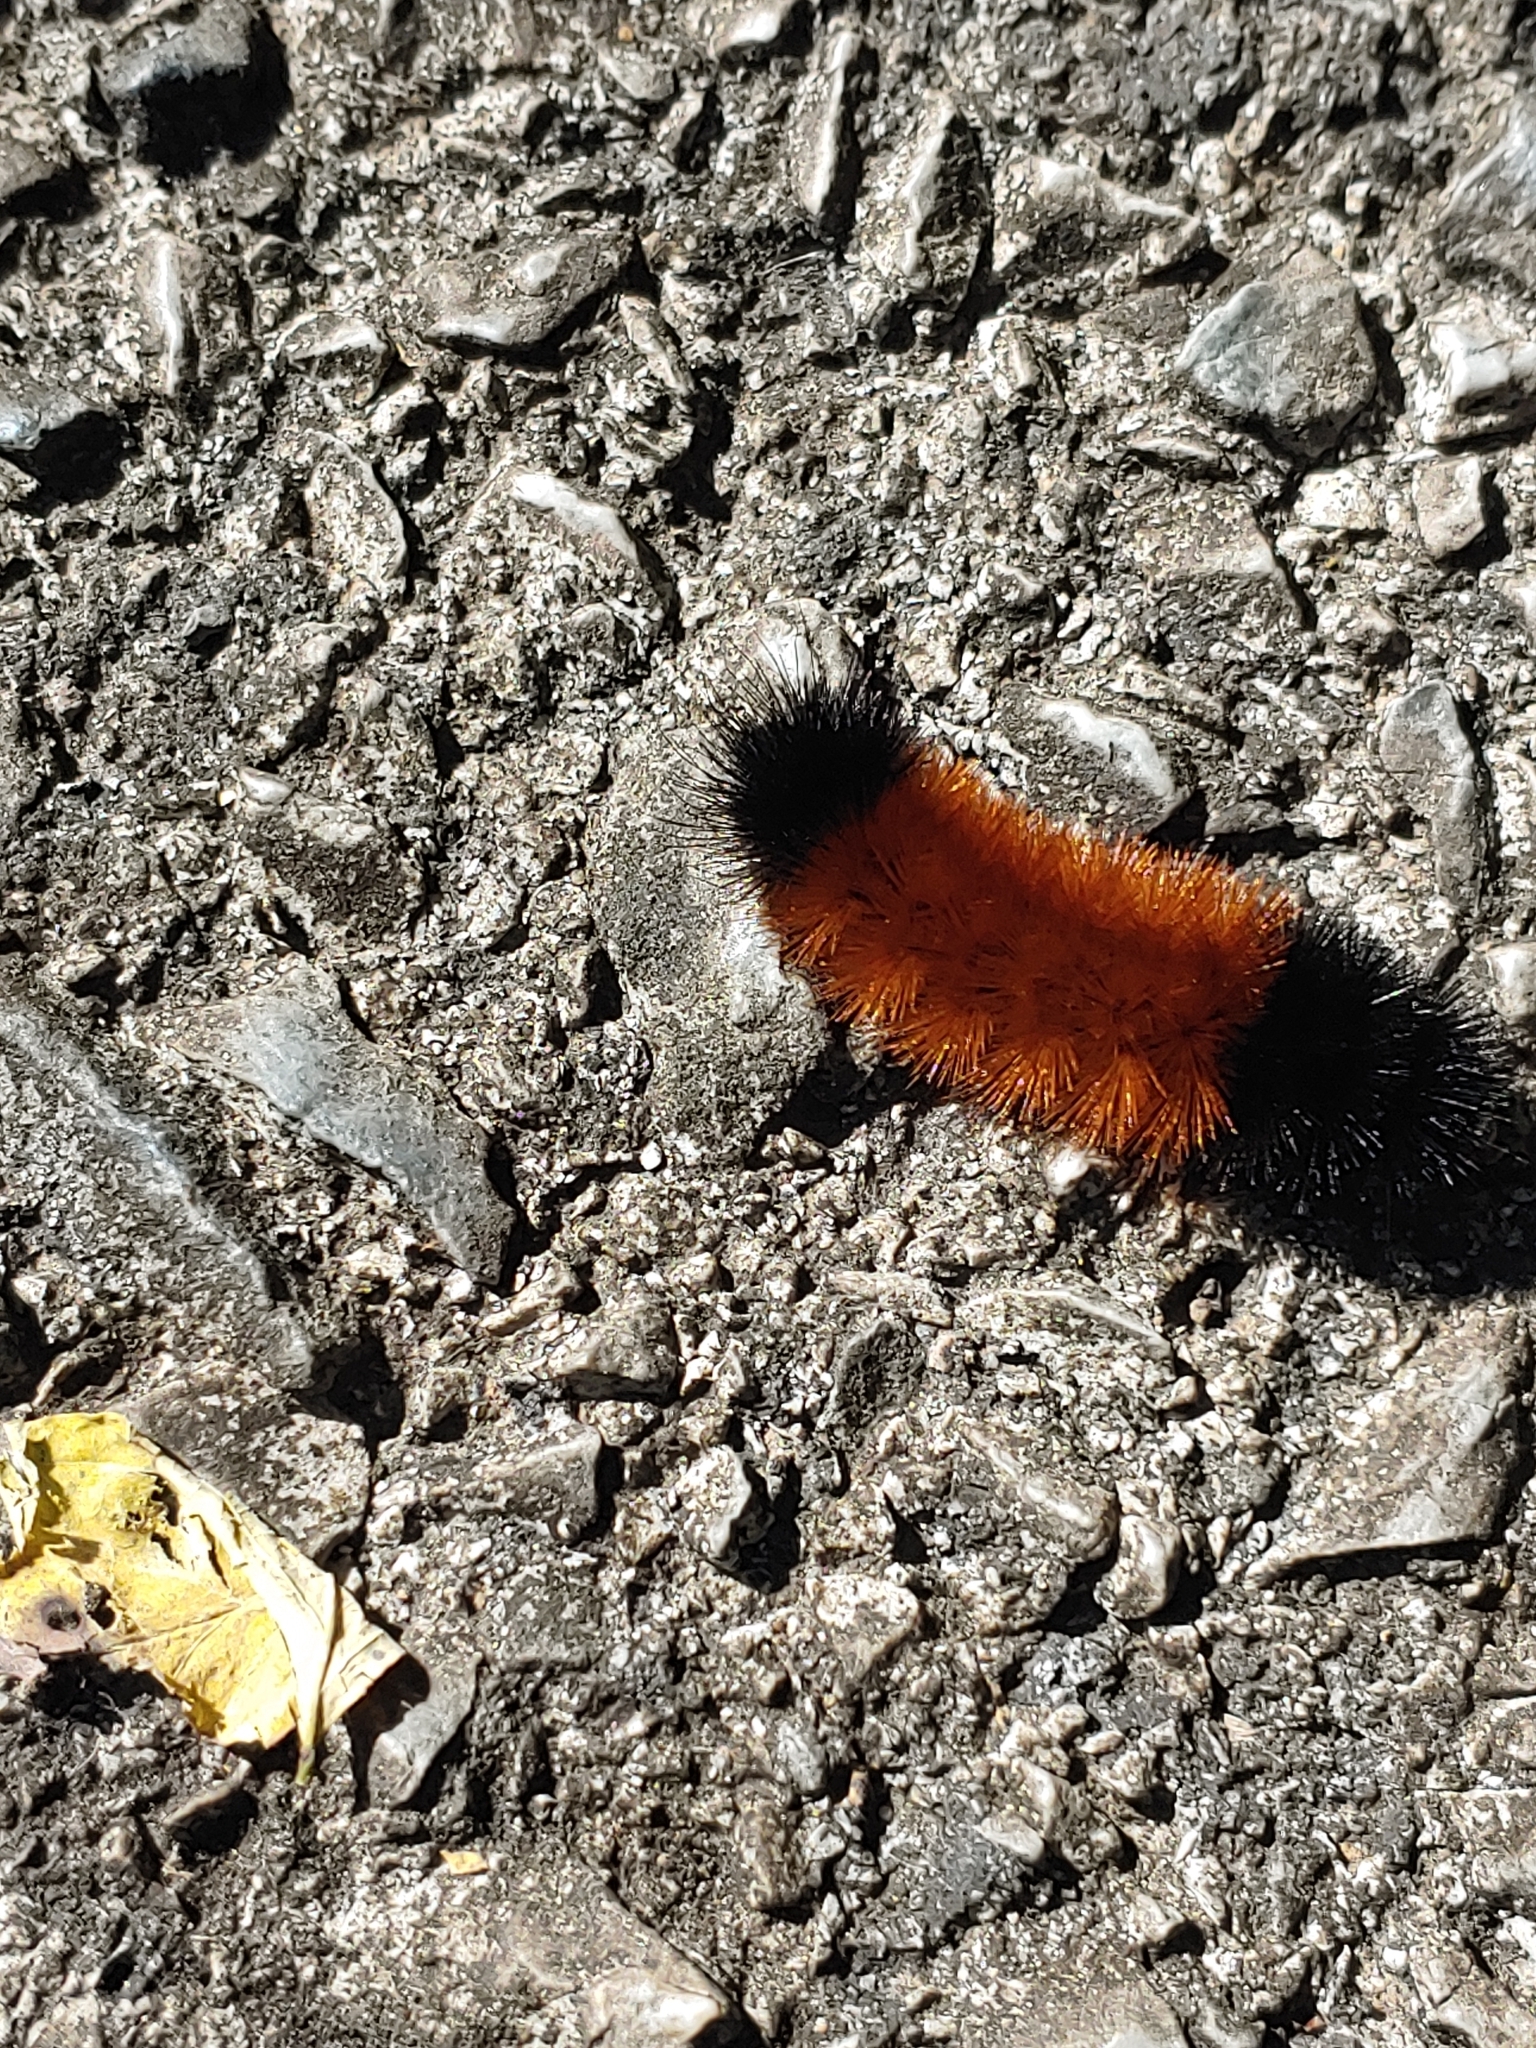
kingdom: Animalia
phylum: Arthropoda
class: Insecta
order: Lepidoptera
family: Erebidae
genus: Pyrrharctia
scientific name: Pyrrharctia isabella
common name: Isabella tiger moth
